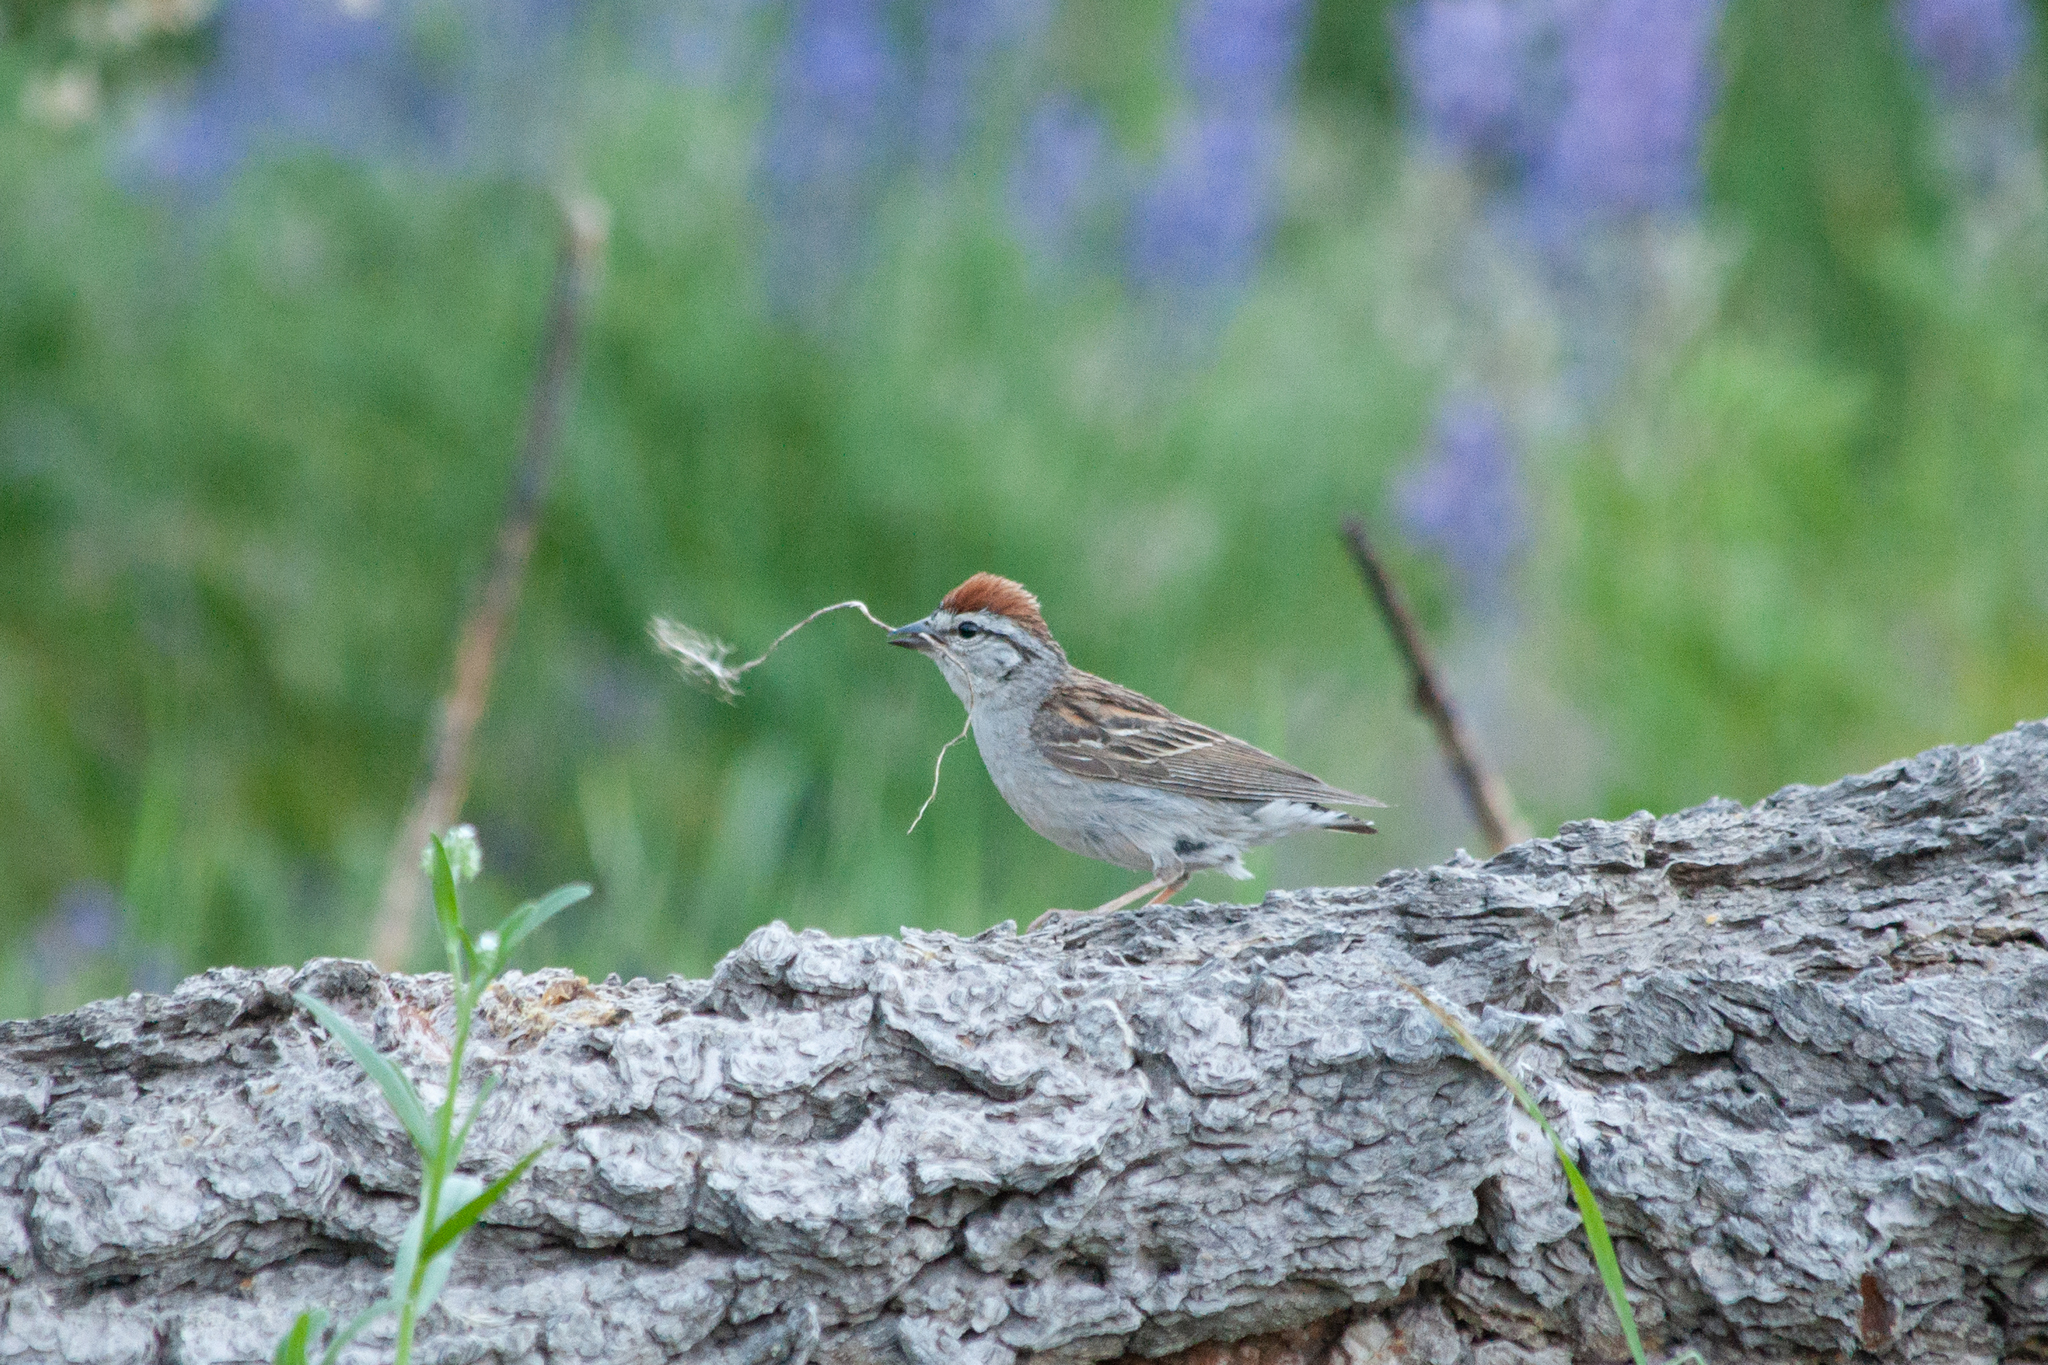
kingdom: Animalia
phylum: Chordata
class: Aves
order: Passeriformes
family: Passerellidae
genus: Spizella
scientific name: Spizella passerina
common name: Chipping sparrow
